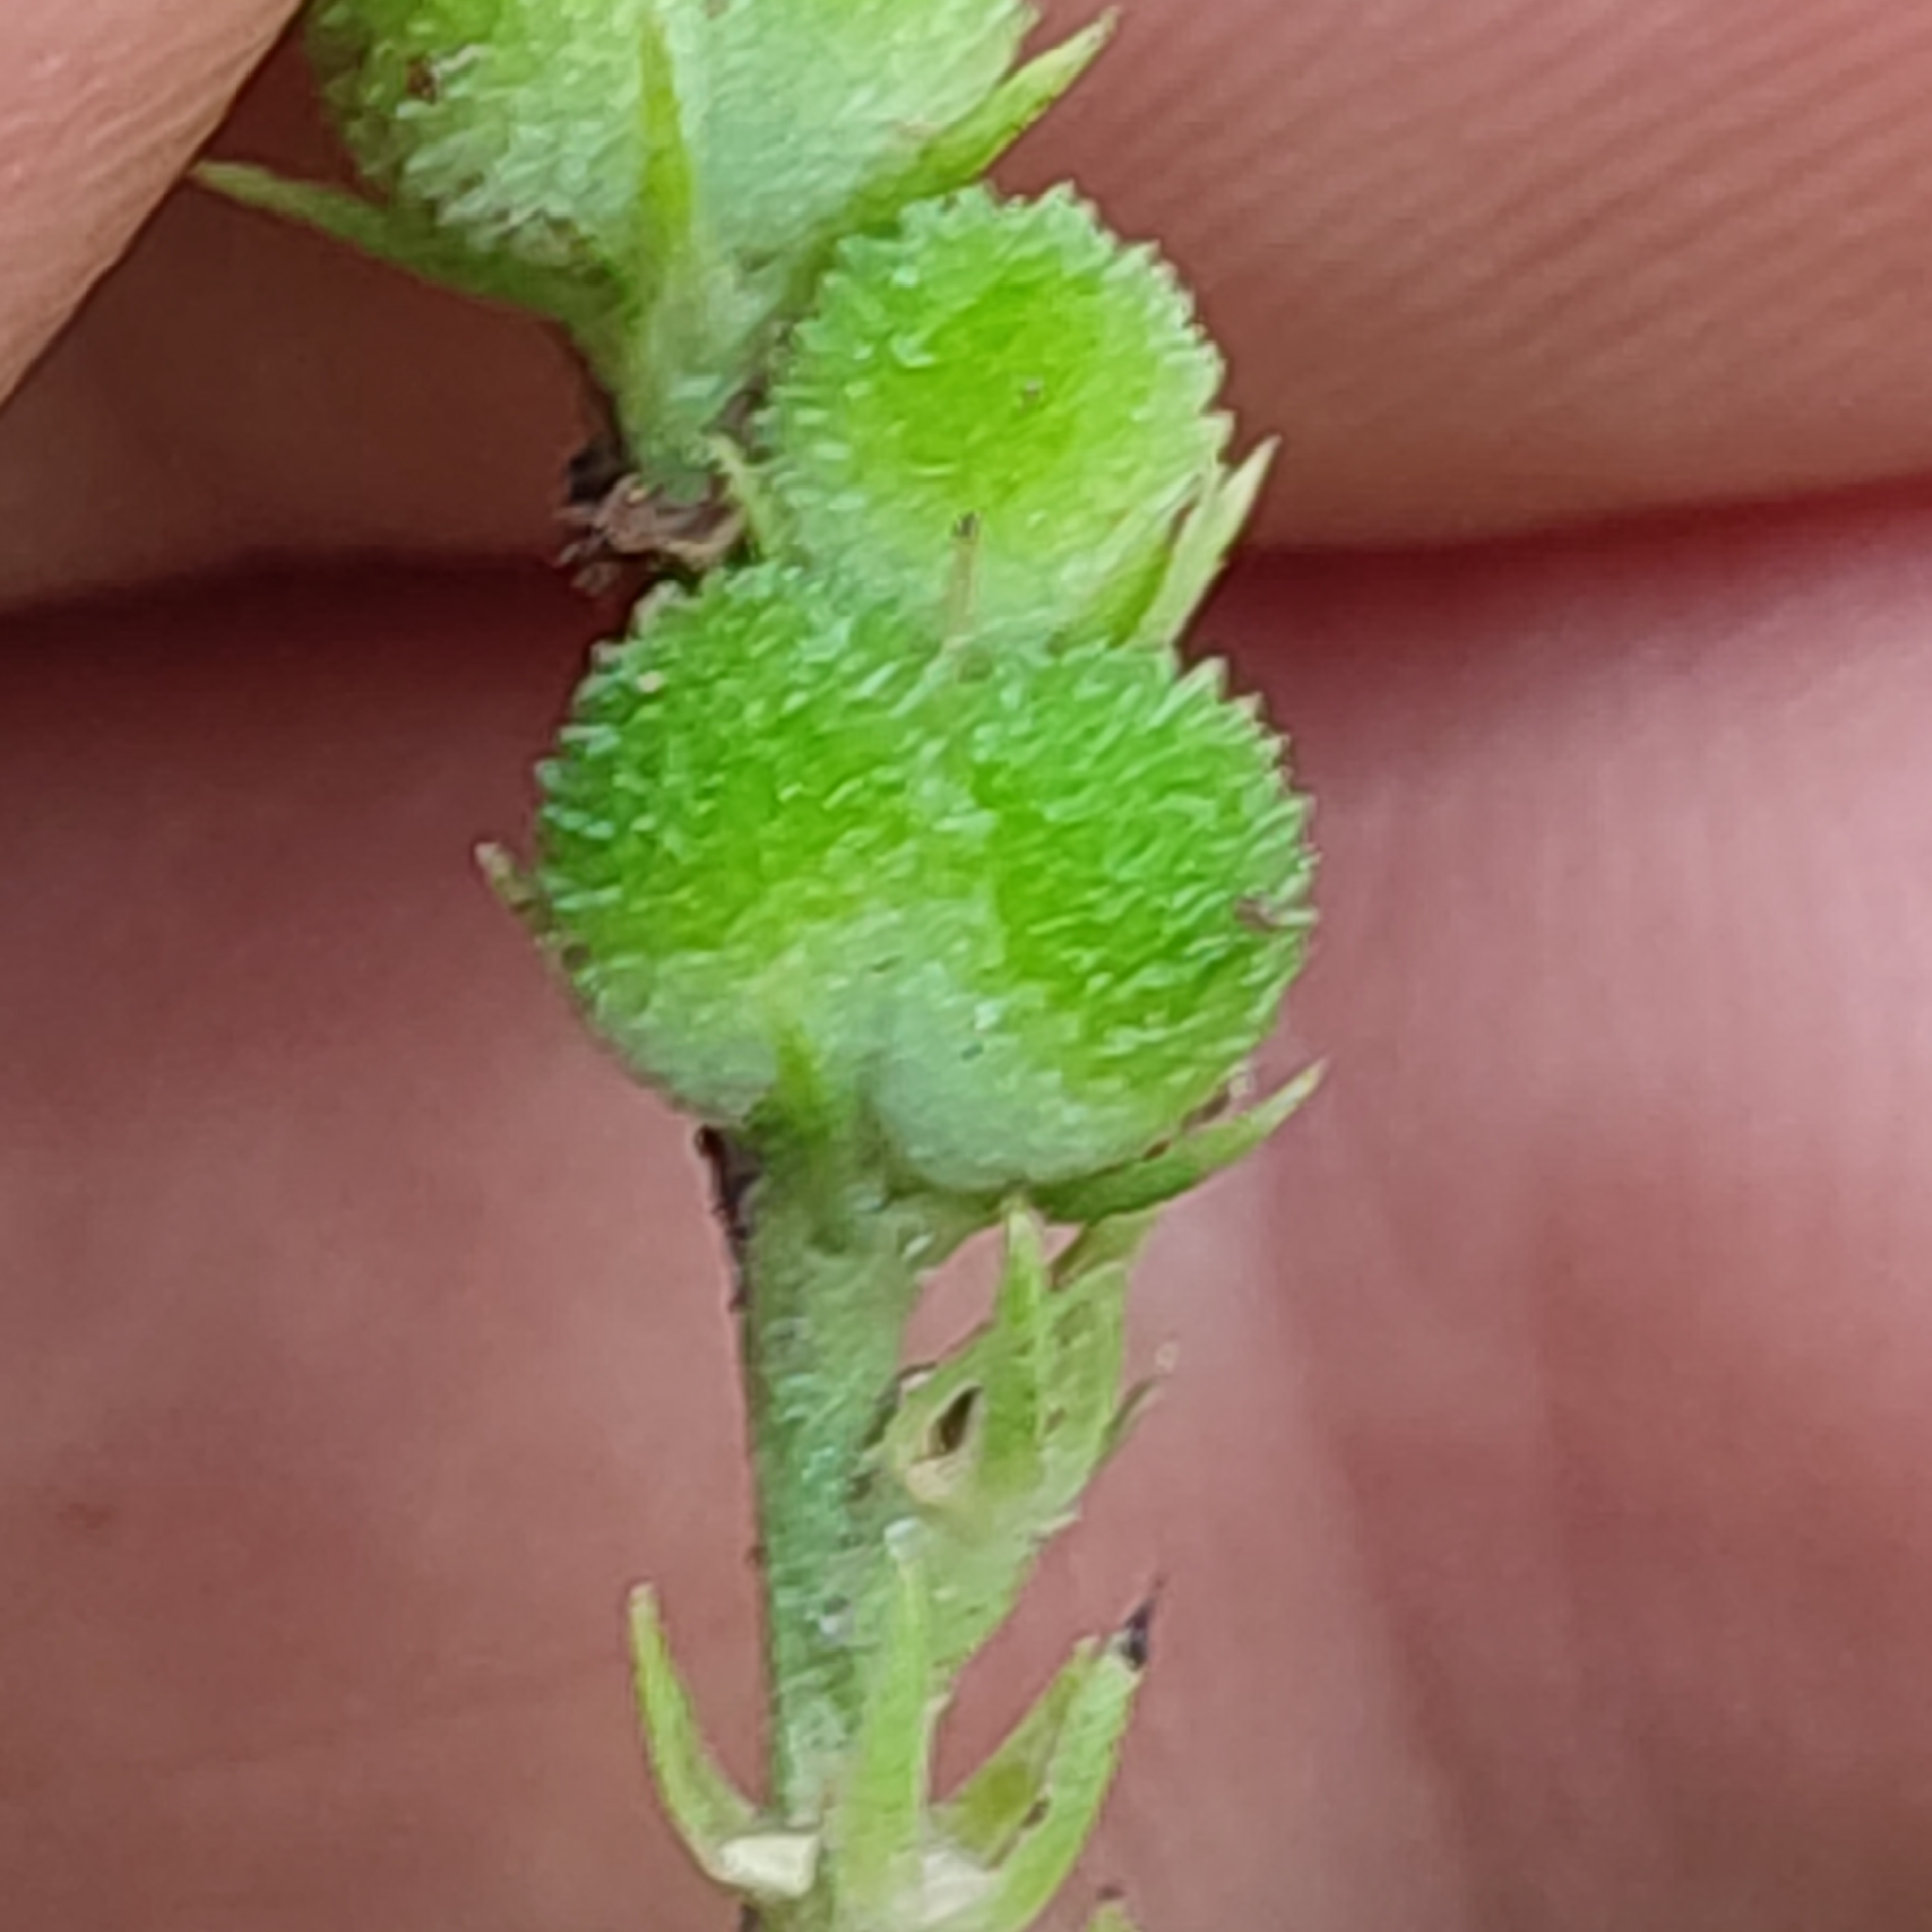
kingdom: Plantae
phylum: Tracheophyta
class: Magnoliopsida
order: Gentianales
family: Loganiaceae
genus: Spigelia
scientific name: Spigelia anthelmia
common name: West indian-pink
